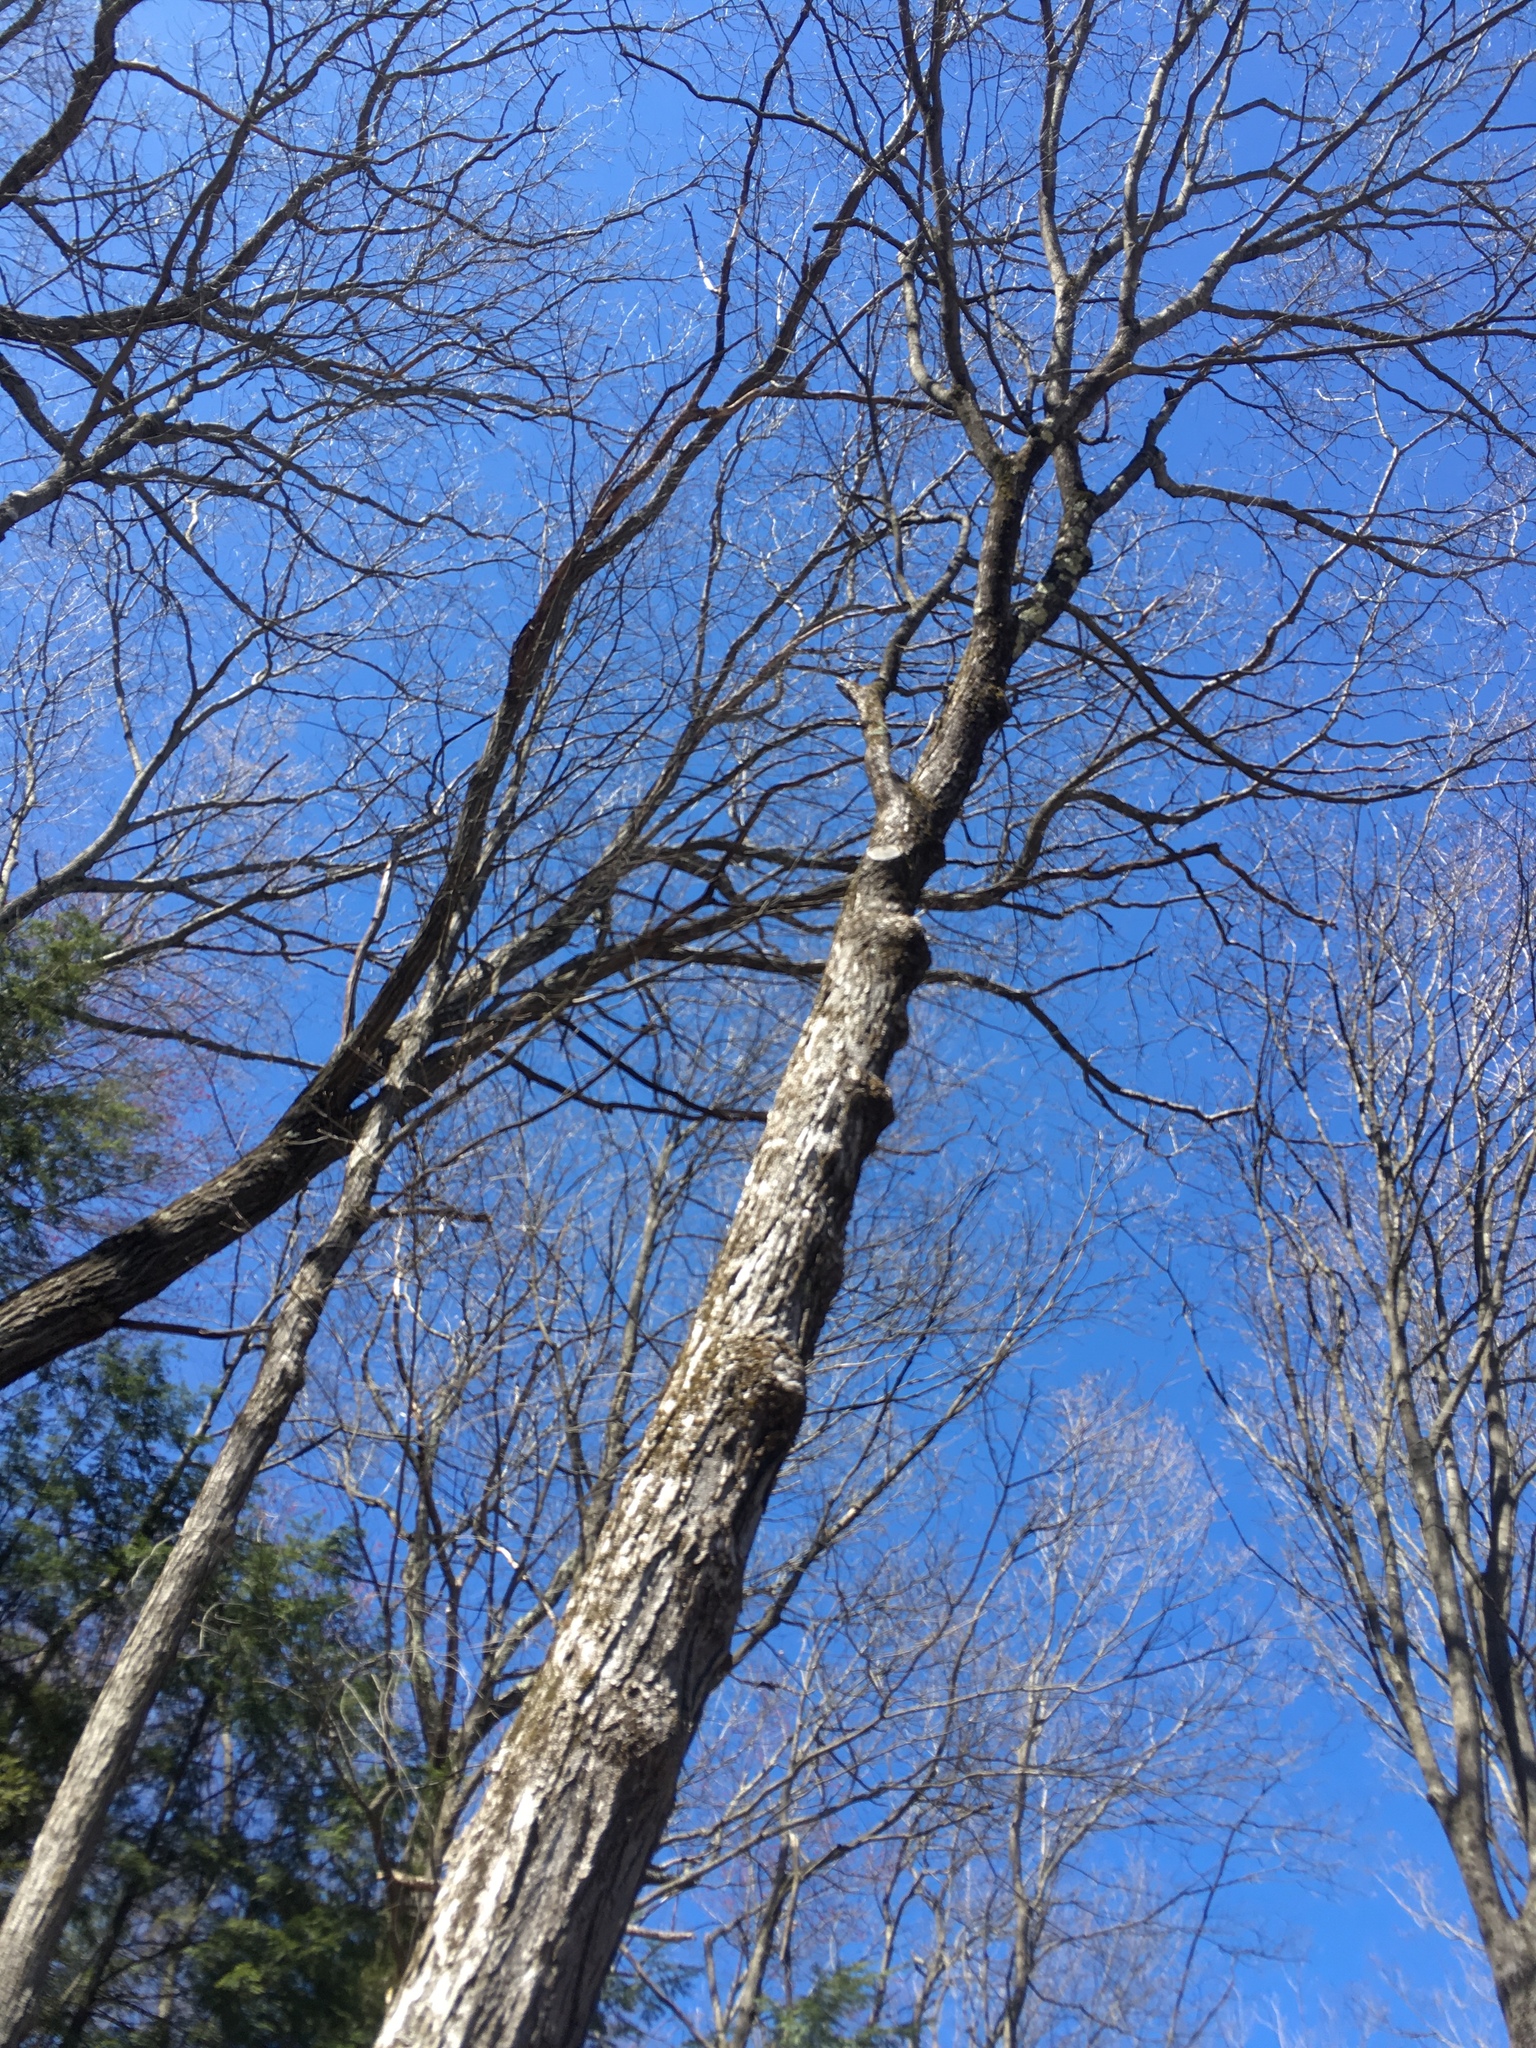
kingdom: Plantae
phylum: Tracheophyta
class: Magnoliopsida
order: Sapindales
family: Sapindaceae
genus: Acer
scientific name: Acer saccharum
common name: Sugar maple
